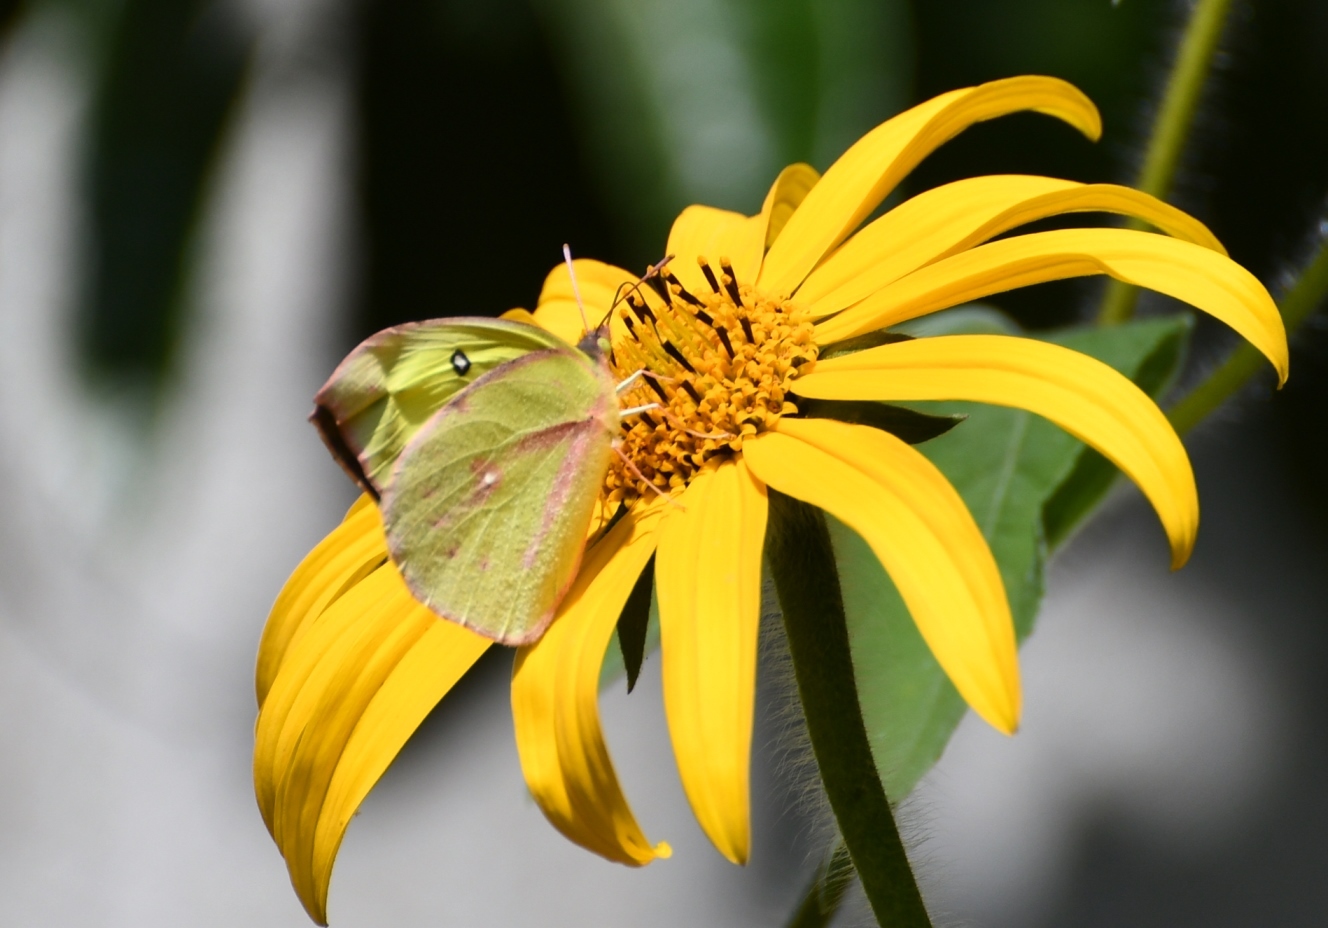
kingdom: Animalia
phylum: Arthropoda
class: Insecta
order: Lepidoptera
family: Pieridae
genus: Zerene
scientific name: Zerene cesonia
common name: Southern dogface
